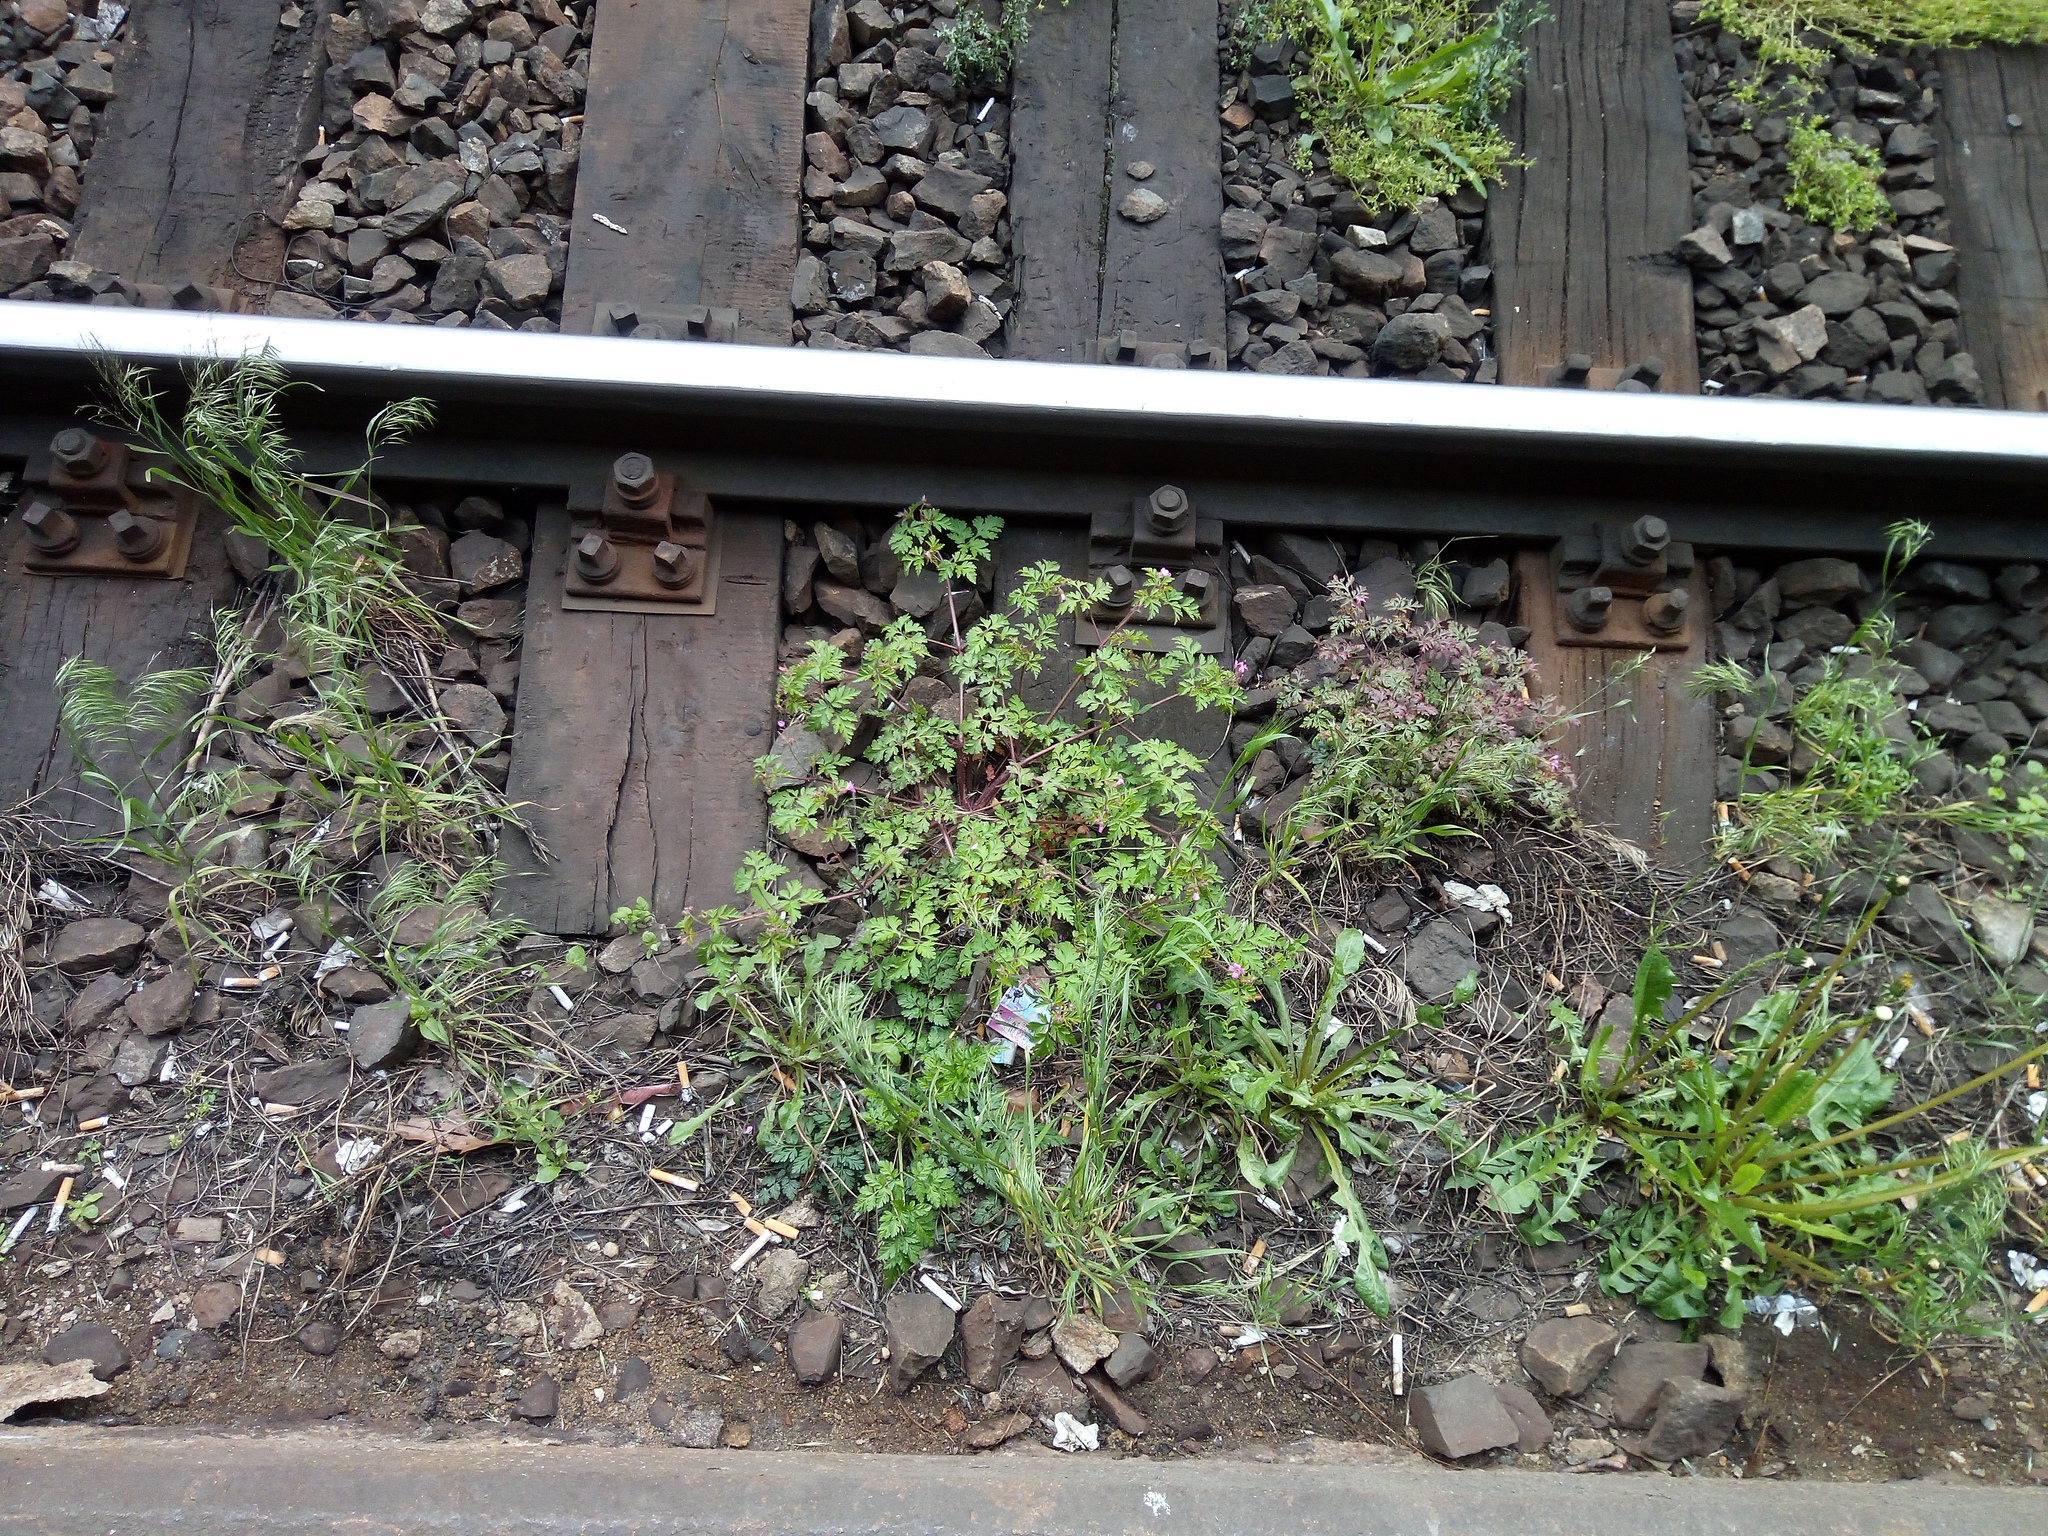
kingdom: Plantae
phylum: Tracheophyta
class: Magnoliopsida
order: Geraniales
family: Geraniaceae
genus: Geranium
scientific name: Geranium robertianum
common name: Herb-robert
